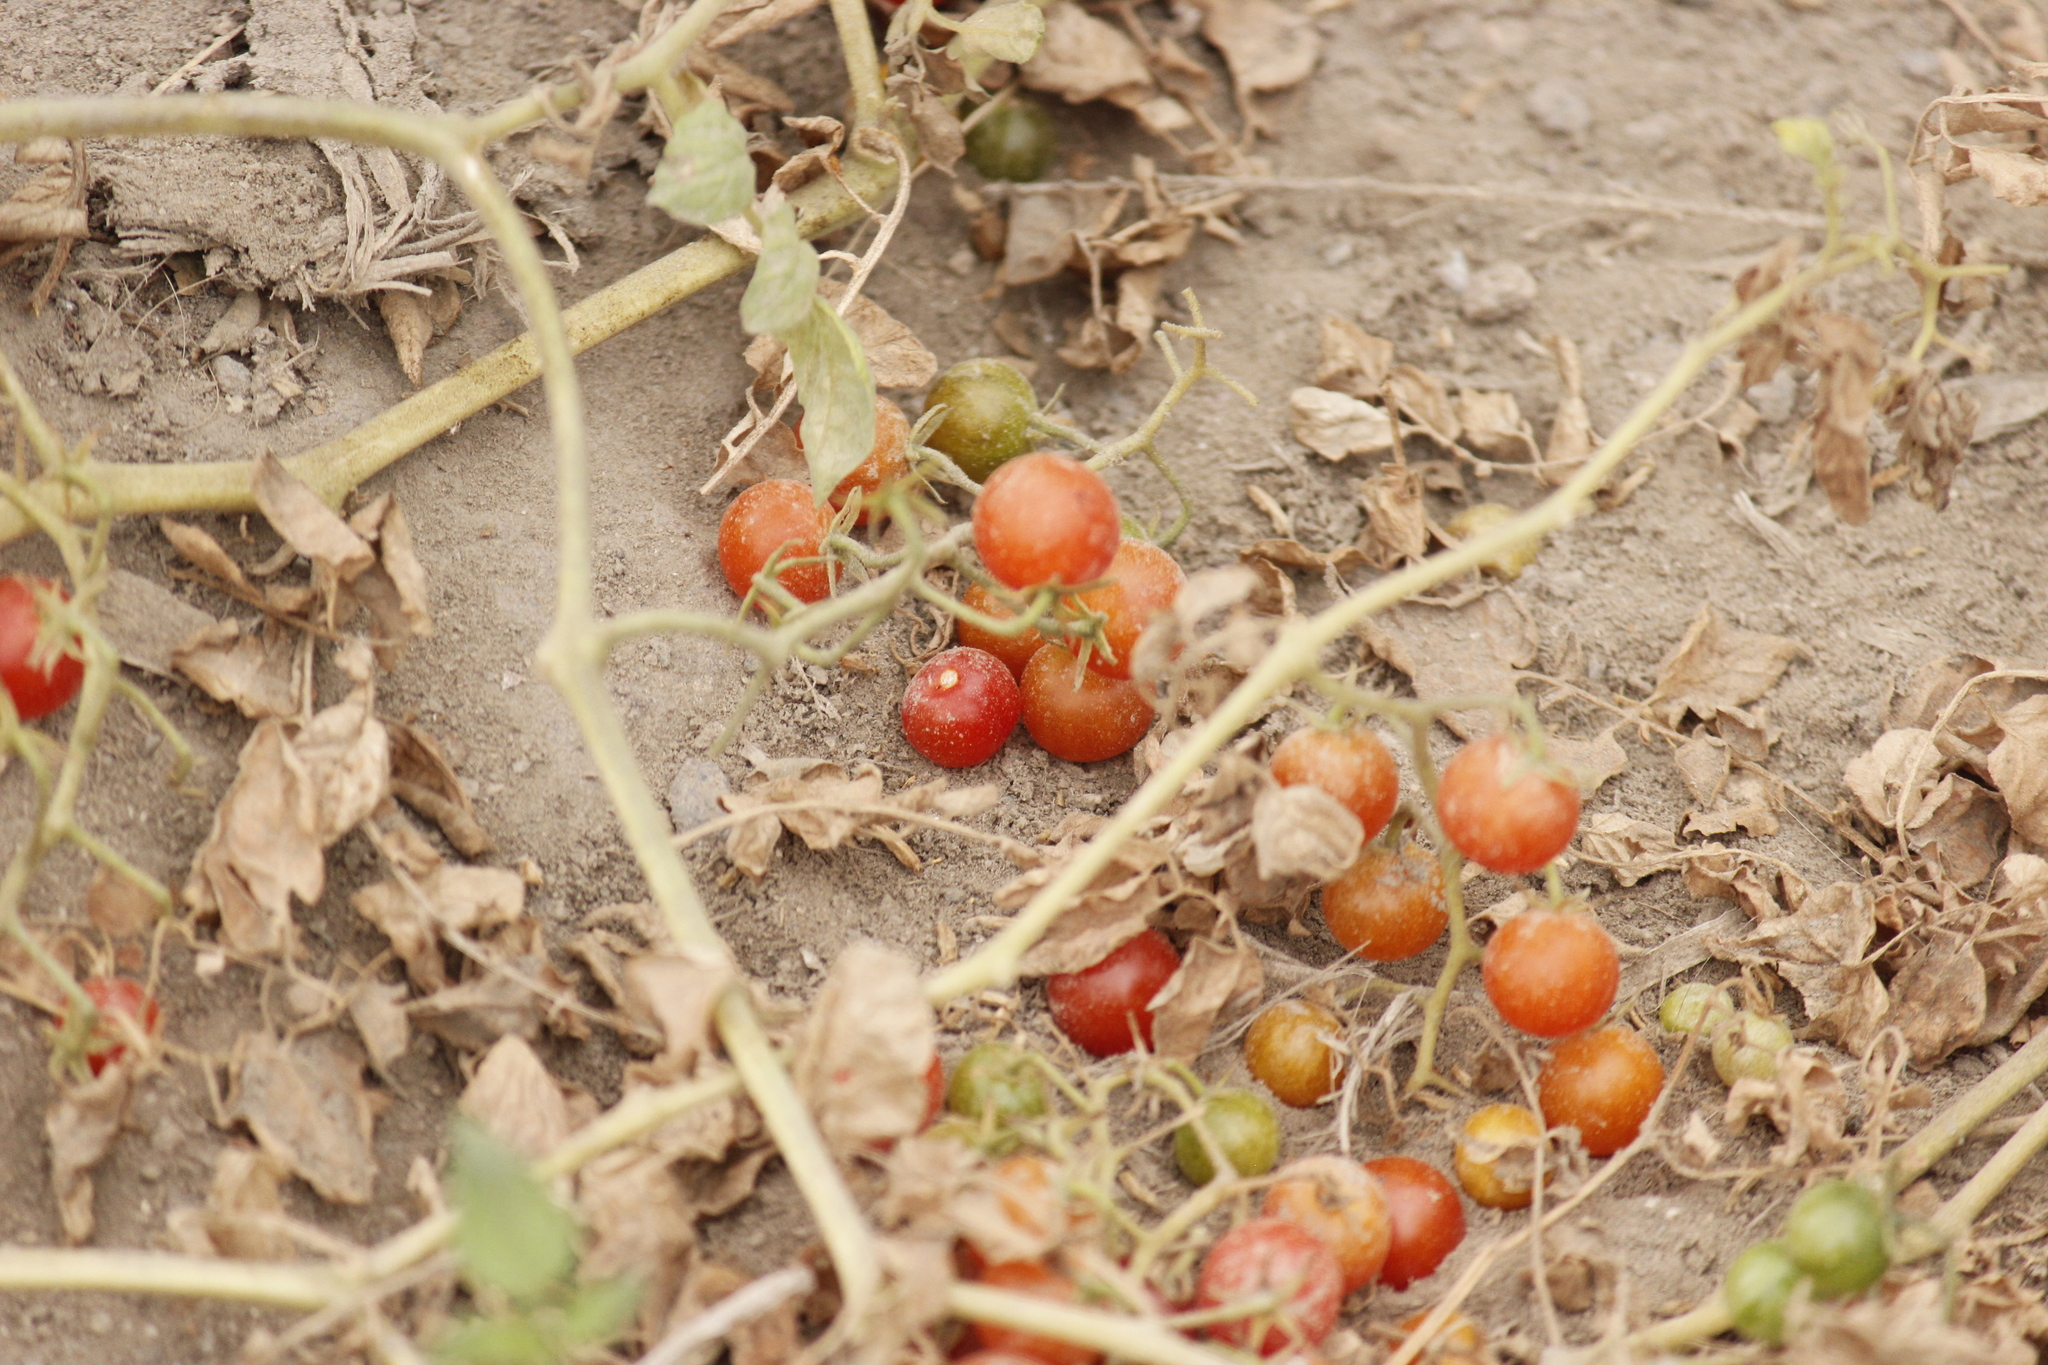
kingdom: Plantae
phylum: Tracheophyta
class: Magnoliopsida
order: Solanales
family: Solanaceae
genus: Solanum
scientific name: Solanum pimpinellifolium
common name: Currant-tomato
